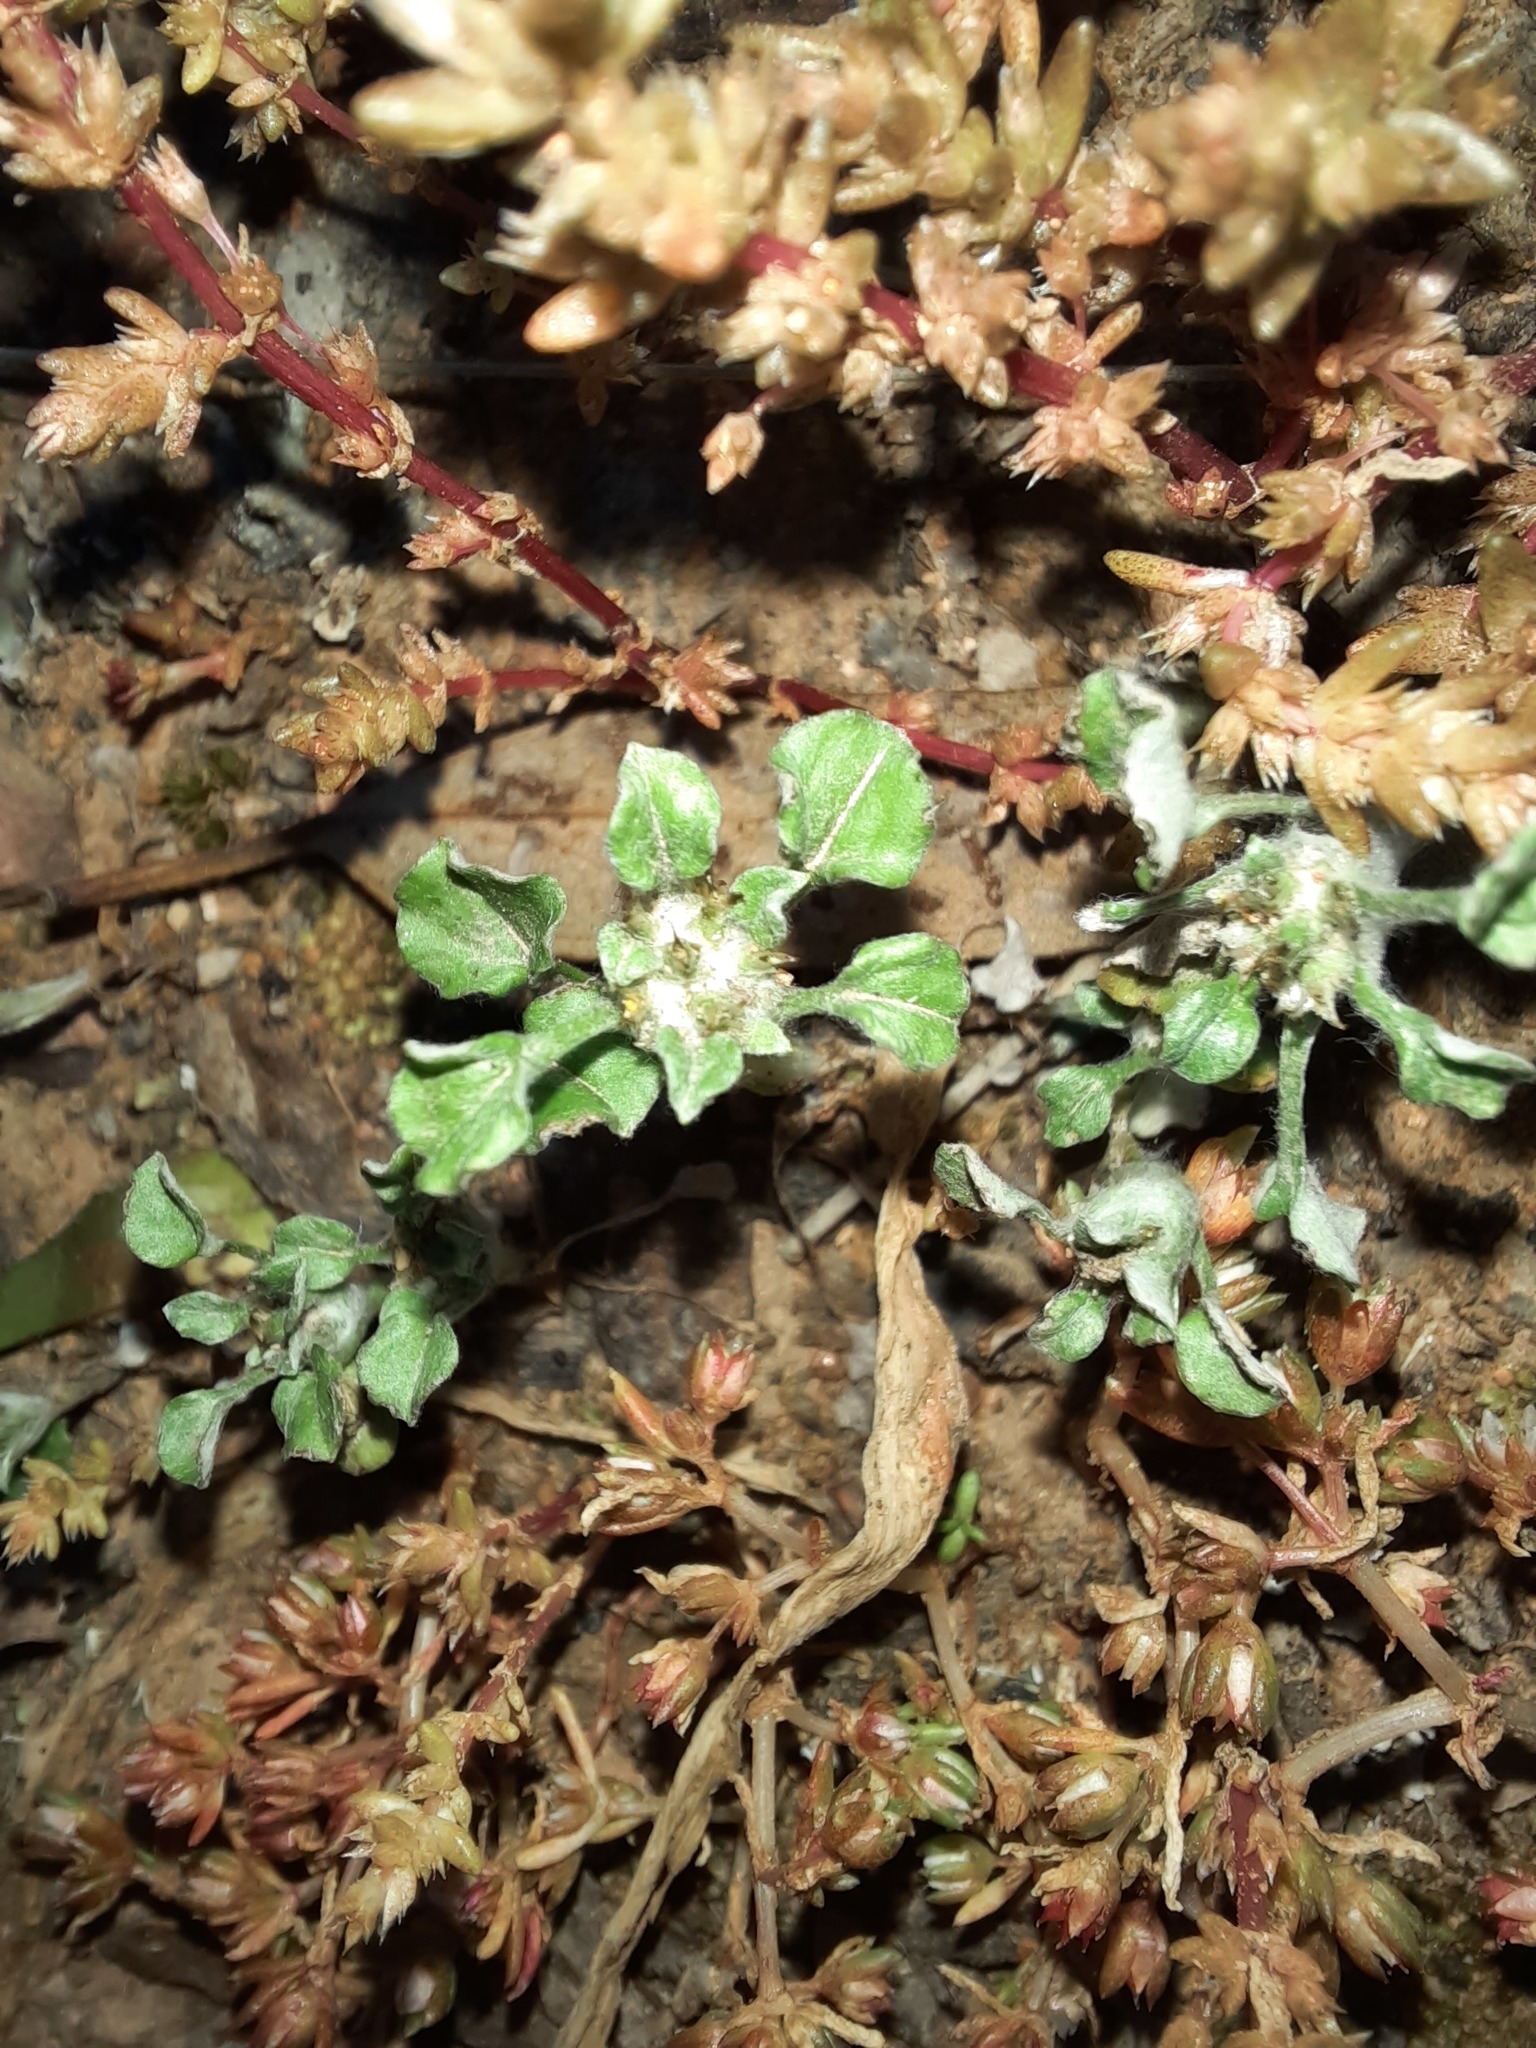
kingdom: Plantae
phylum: Tracheophyta
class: Magnoliopsida
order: Asterales
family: Asteraceae
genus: Stuartina
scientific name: Stuartina muelleri
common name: Spoon-leaved cudweed
